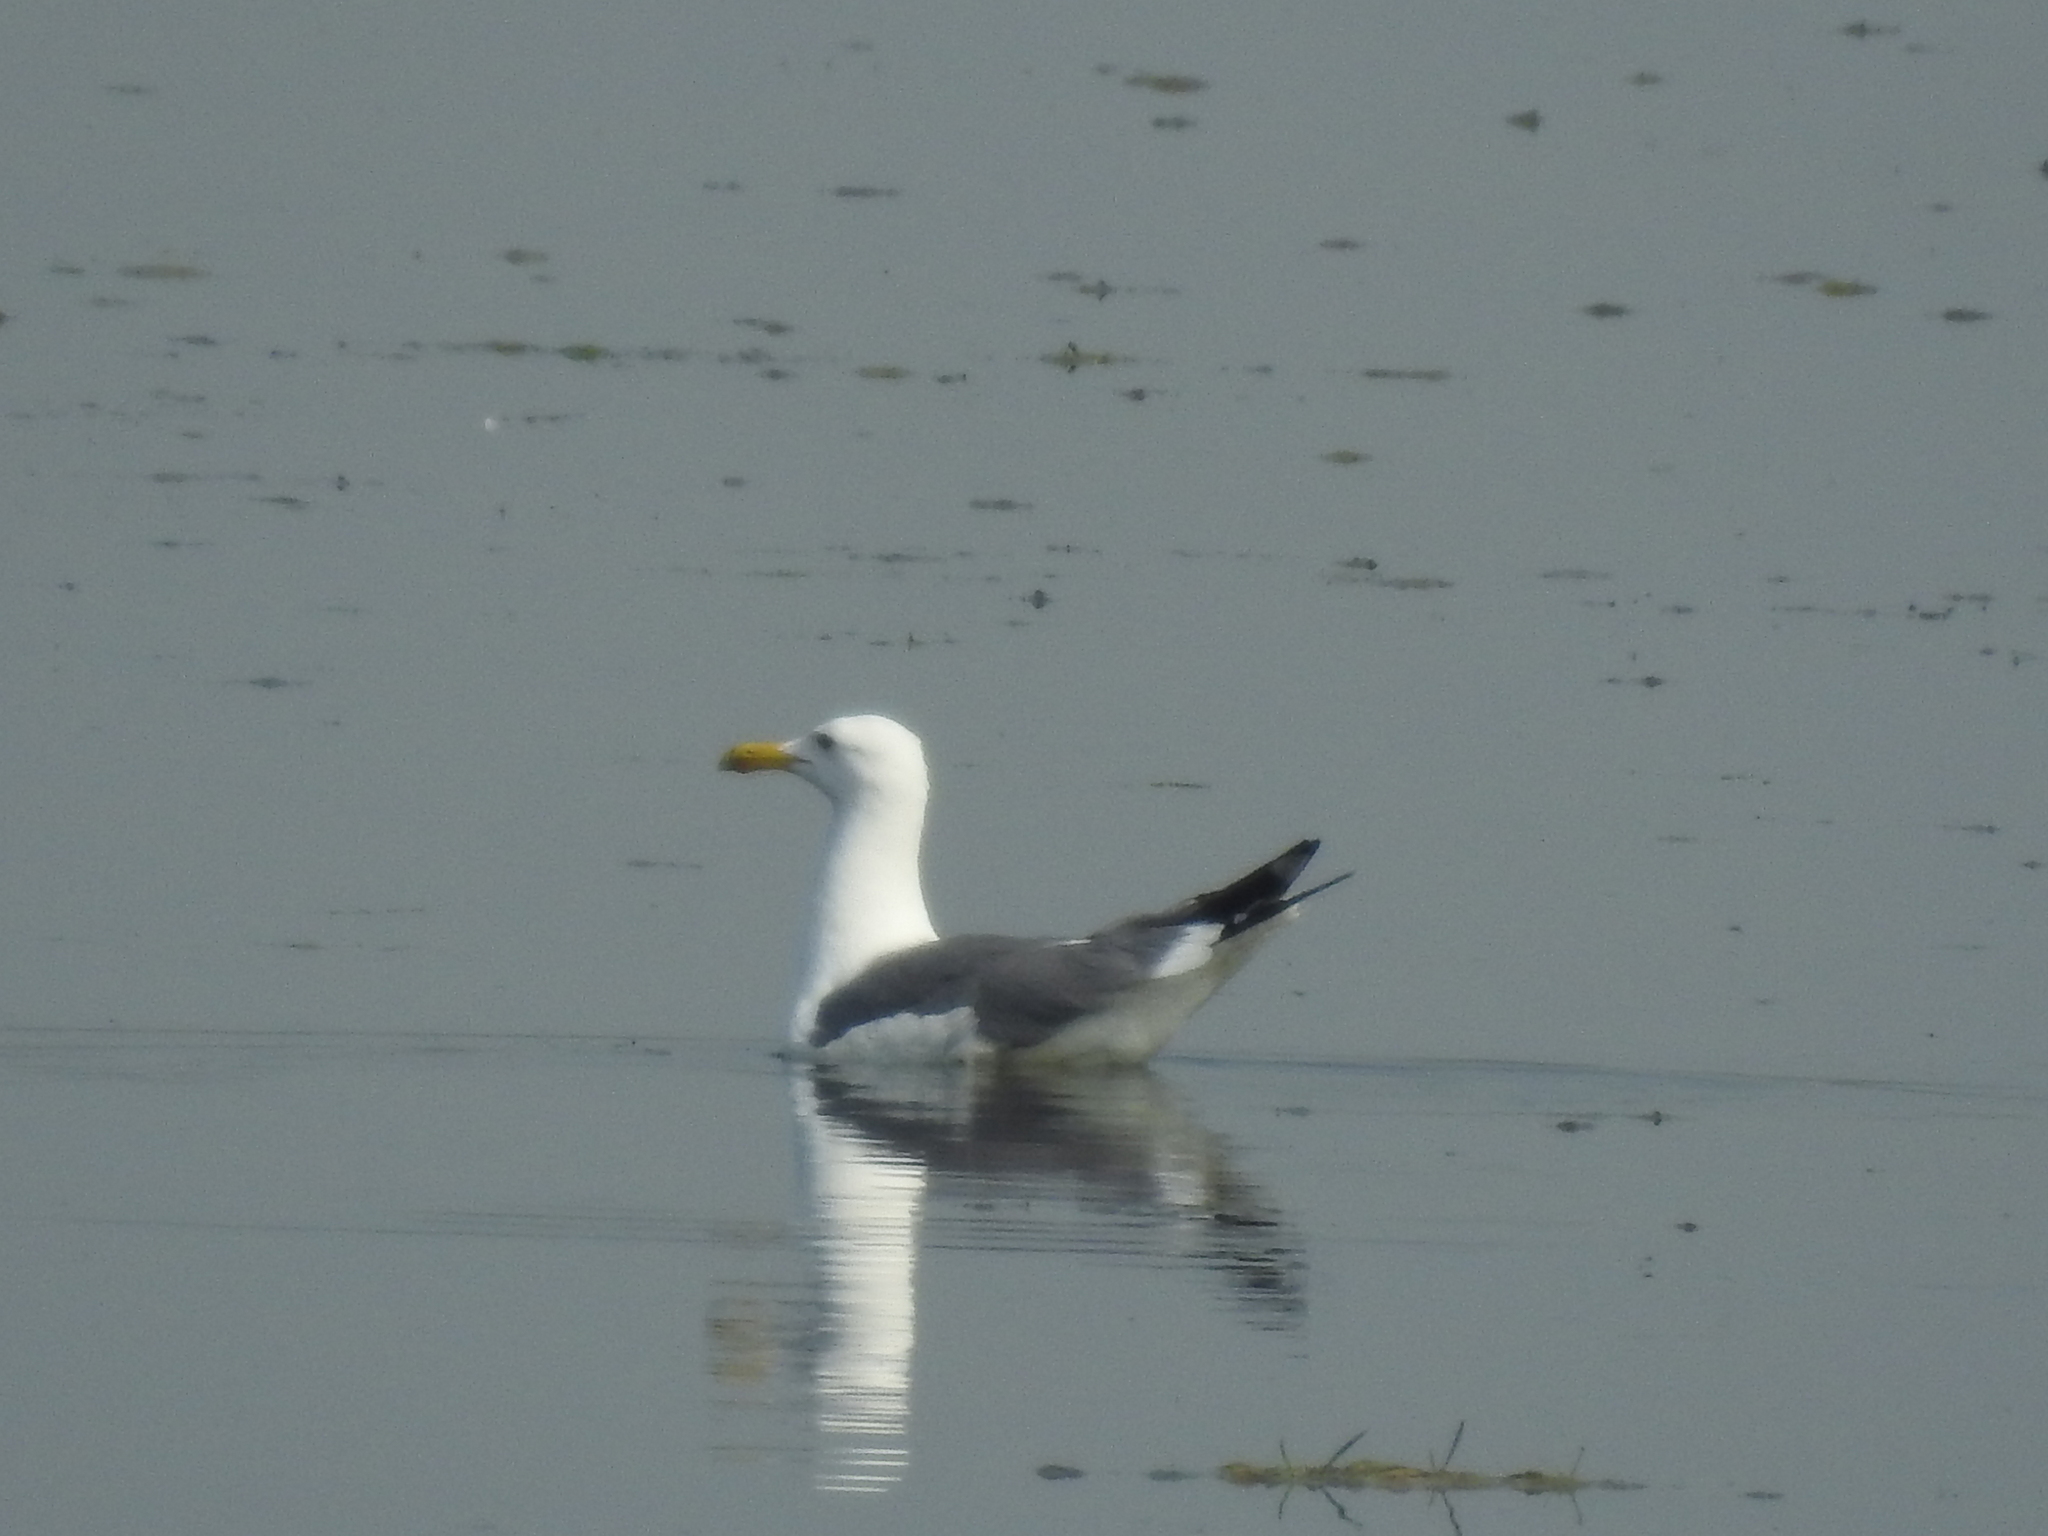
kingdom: Animalia
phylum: Chordata
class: Aves
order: Charadriiformes
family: Laridae
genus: Larus
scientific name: Larus fuscus
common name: Lesser black-backed gull
